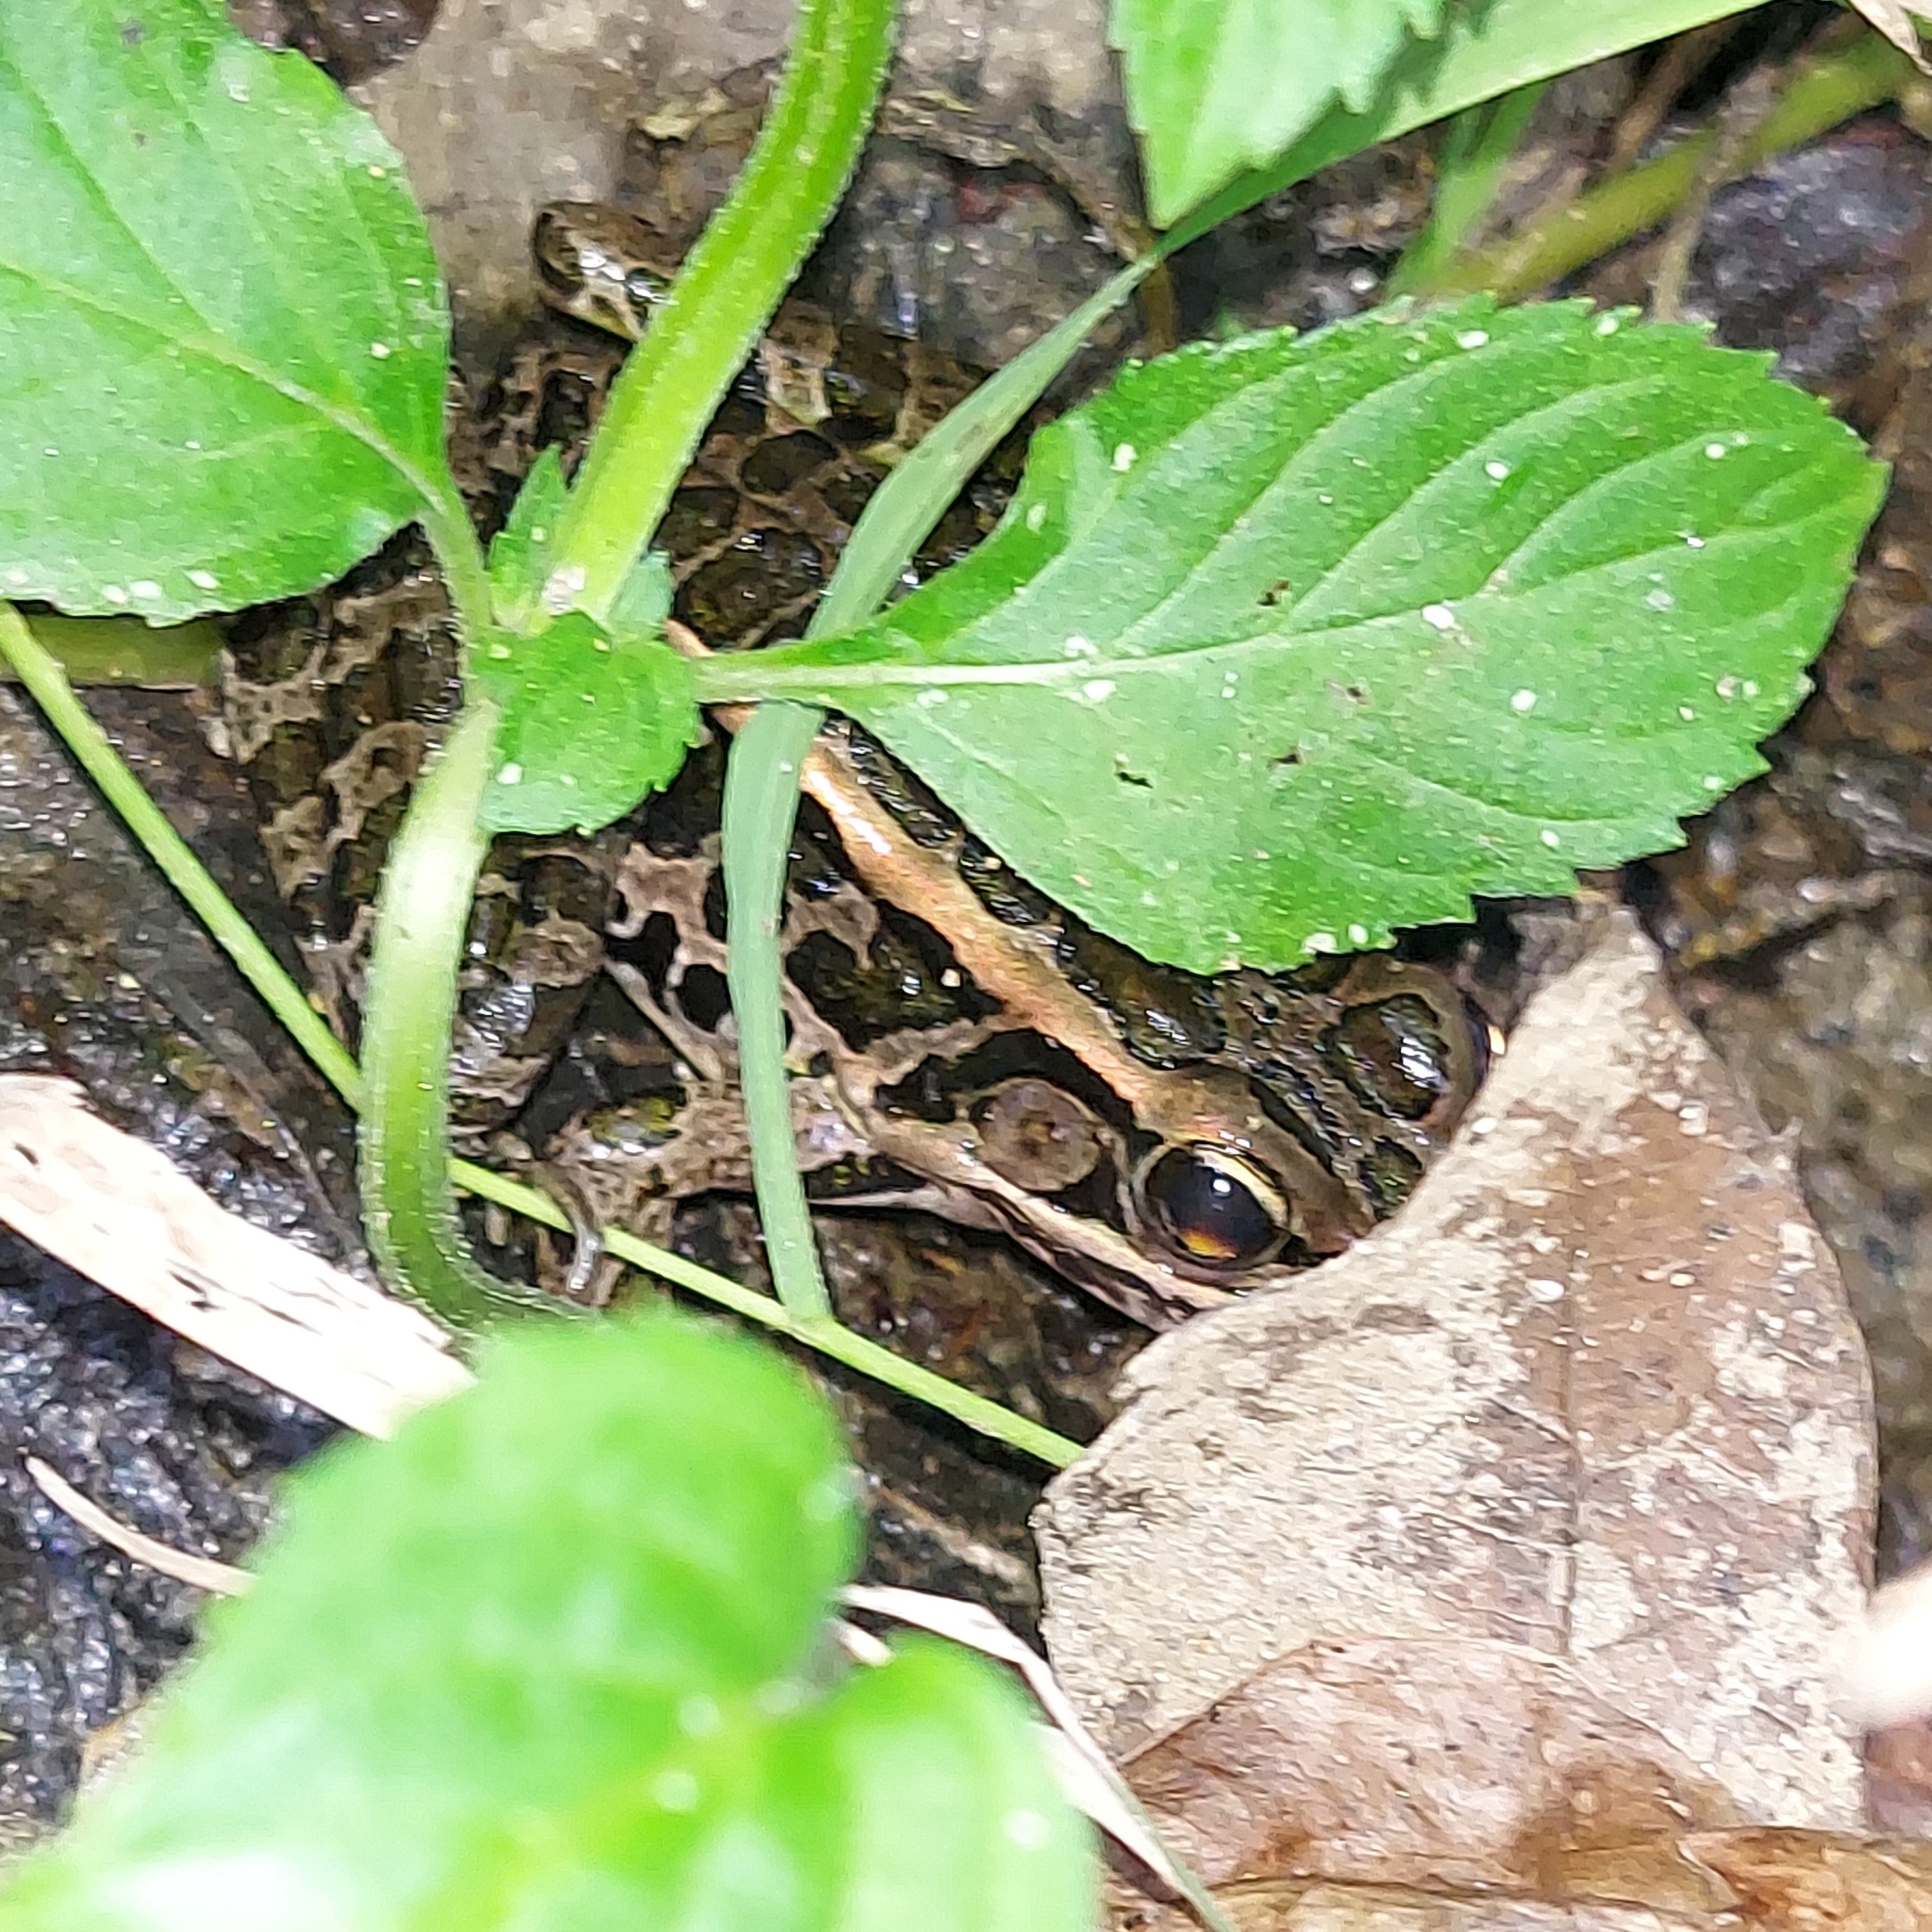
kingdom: Animalia
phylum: Chordata
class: Amphibia
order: Anura
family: Ranidae
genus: Lithobates
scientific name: Lithobates palustris
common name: Pickerel frog
